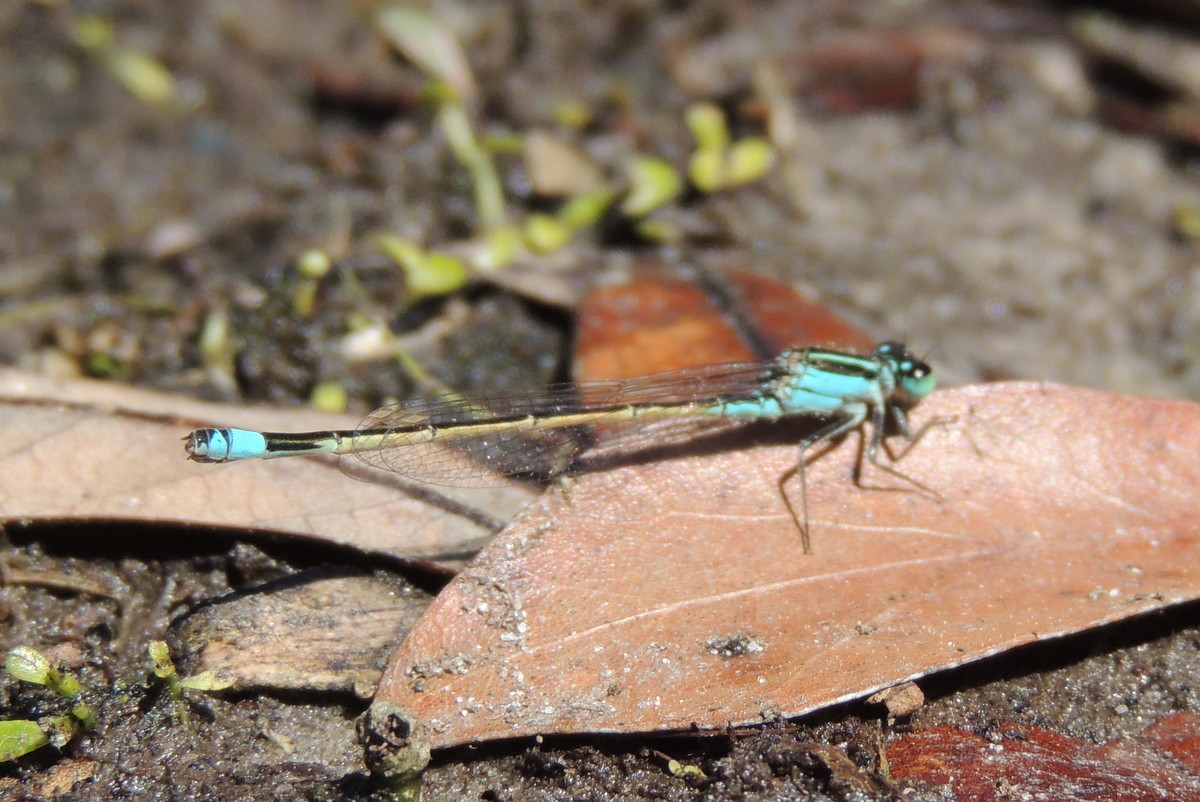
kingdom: Animalia
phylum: Arthropoda
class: Insecta
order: Odonata
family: Coenagrionidae
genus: Ischnura
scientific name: Ischnura ramburii
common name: Rambur's forktail
